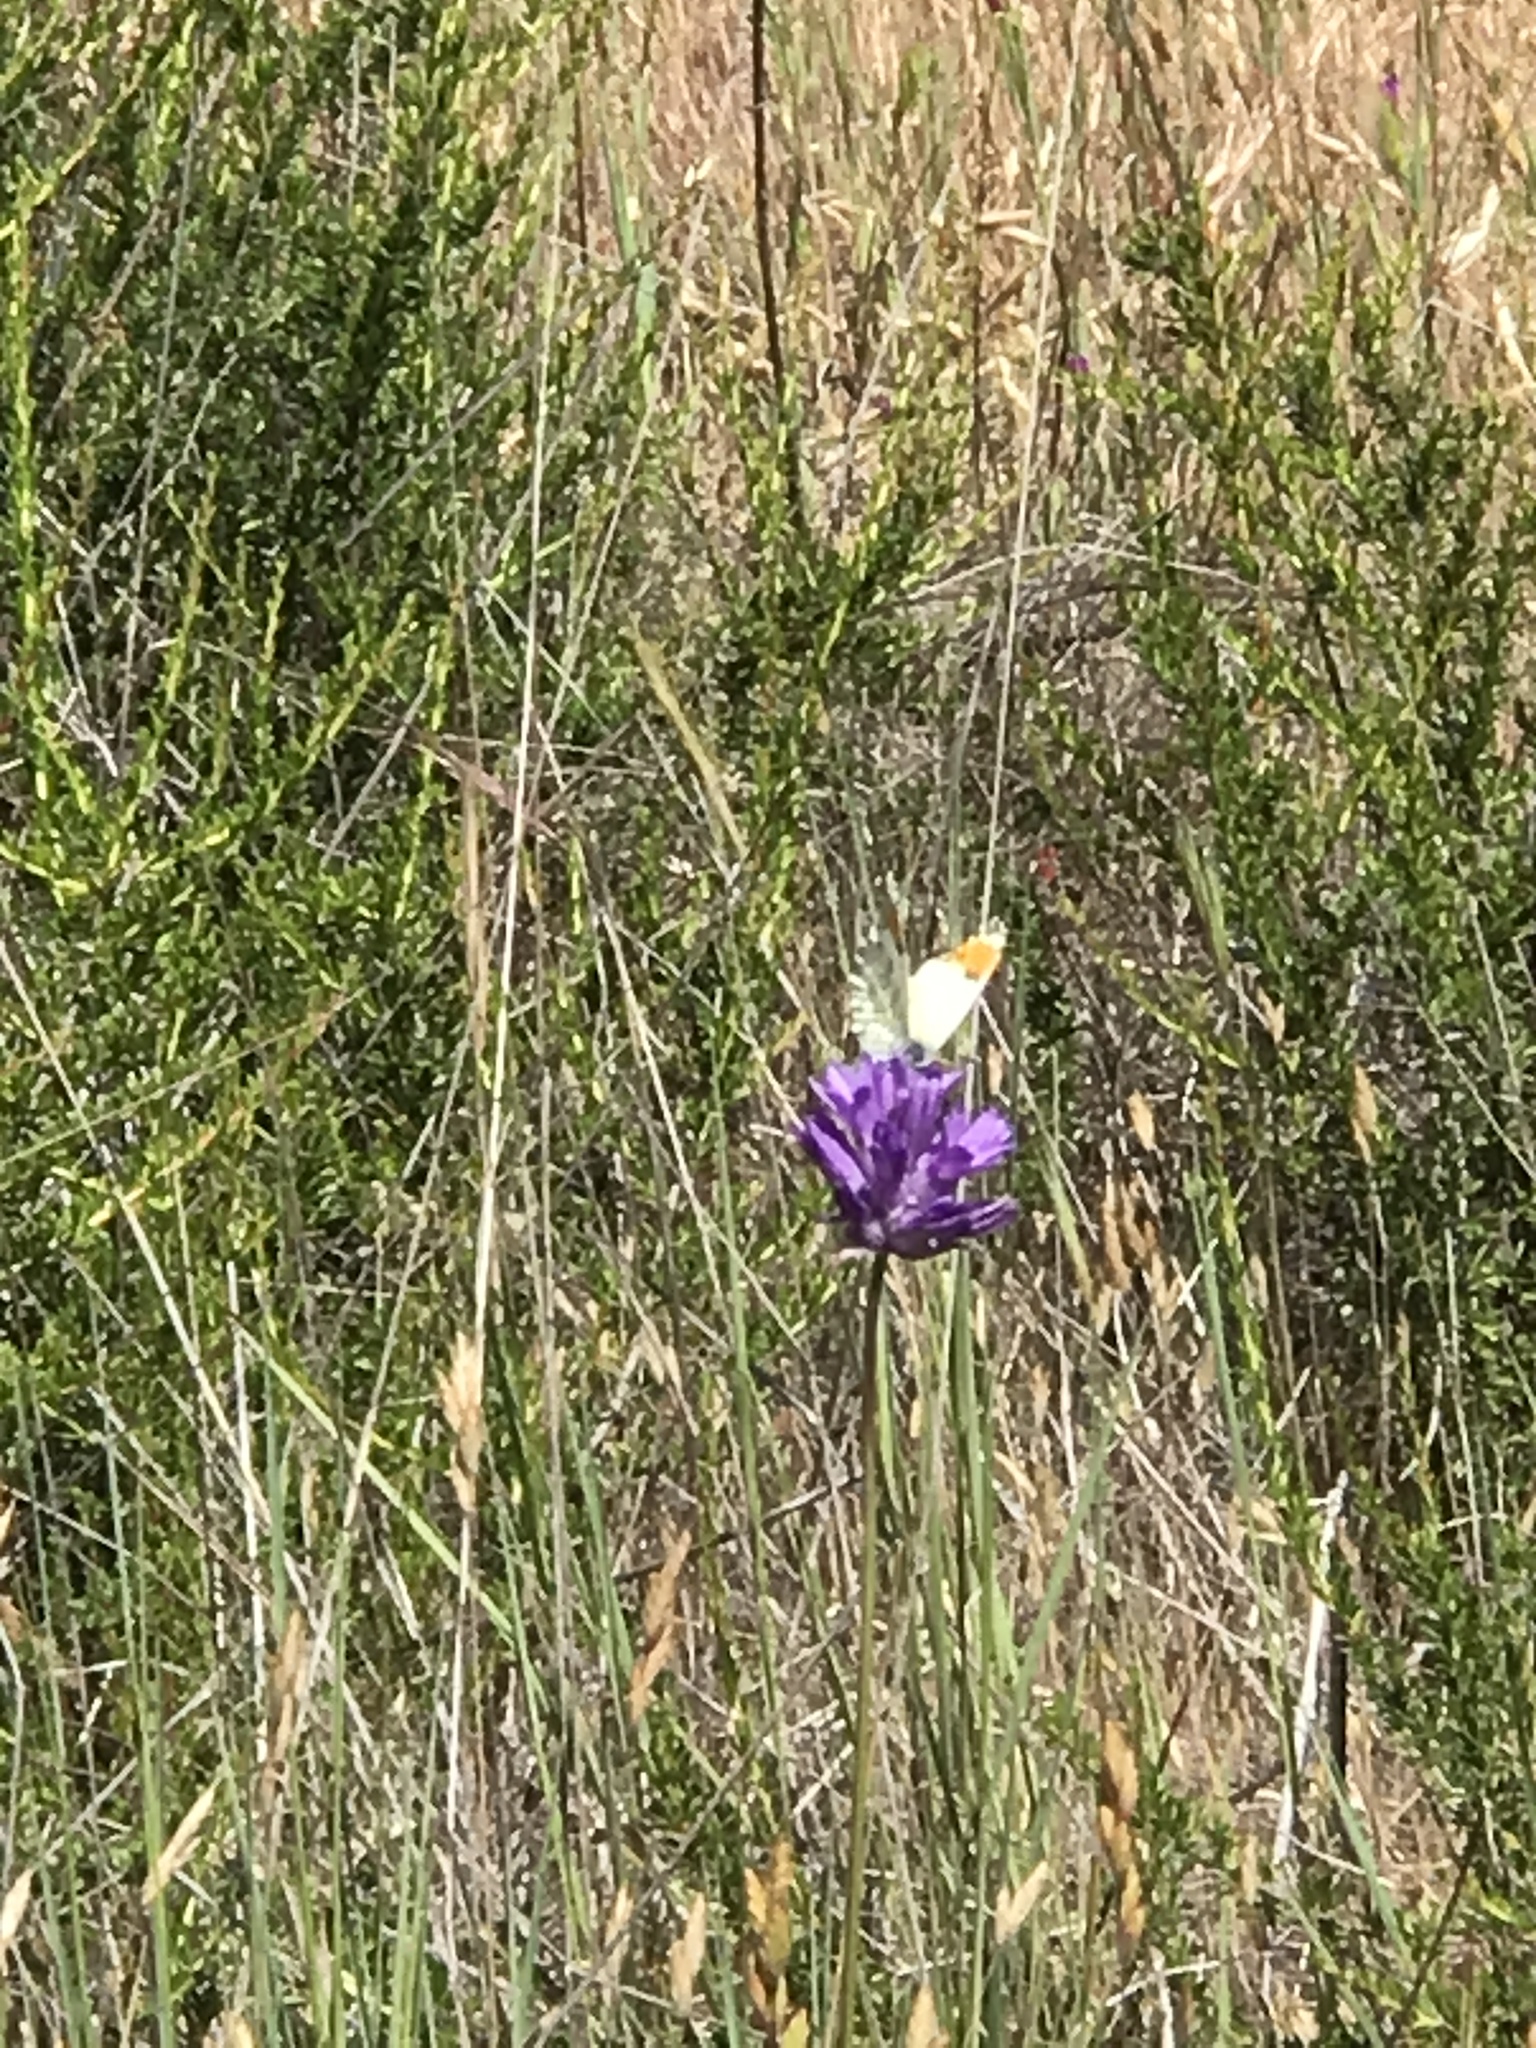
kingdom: Animalia
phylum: Arthropoda
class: Insecta
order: Lepidoptera
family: Pieridae
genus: Anthocharis
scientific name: Anthocharis sara
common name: Sara's orangetip
